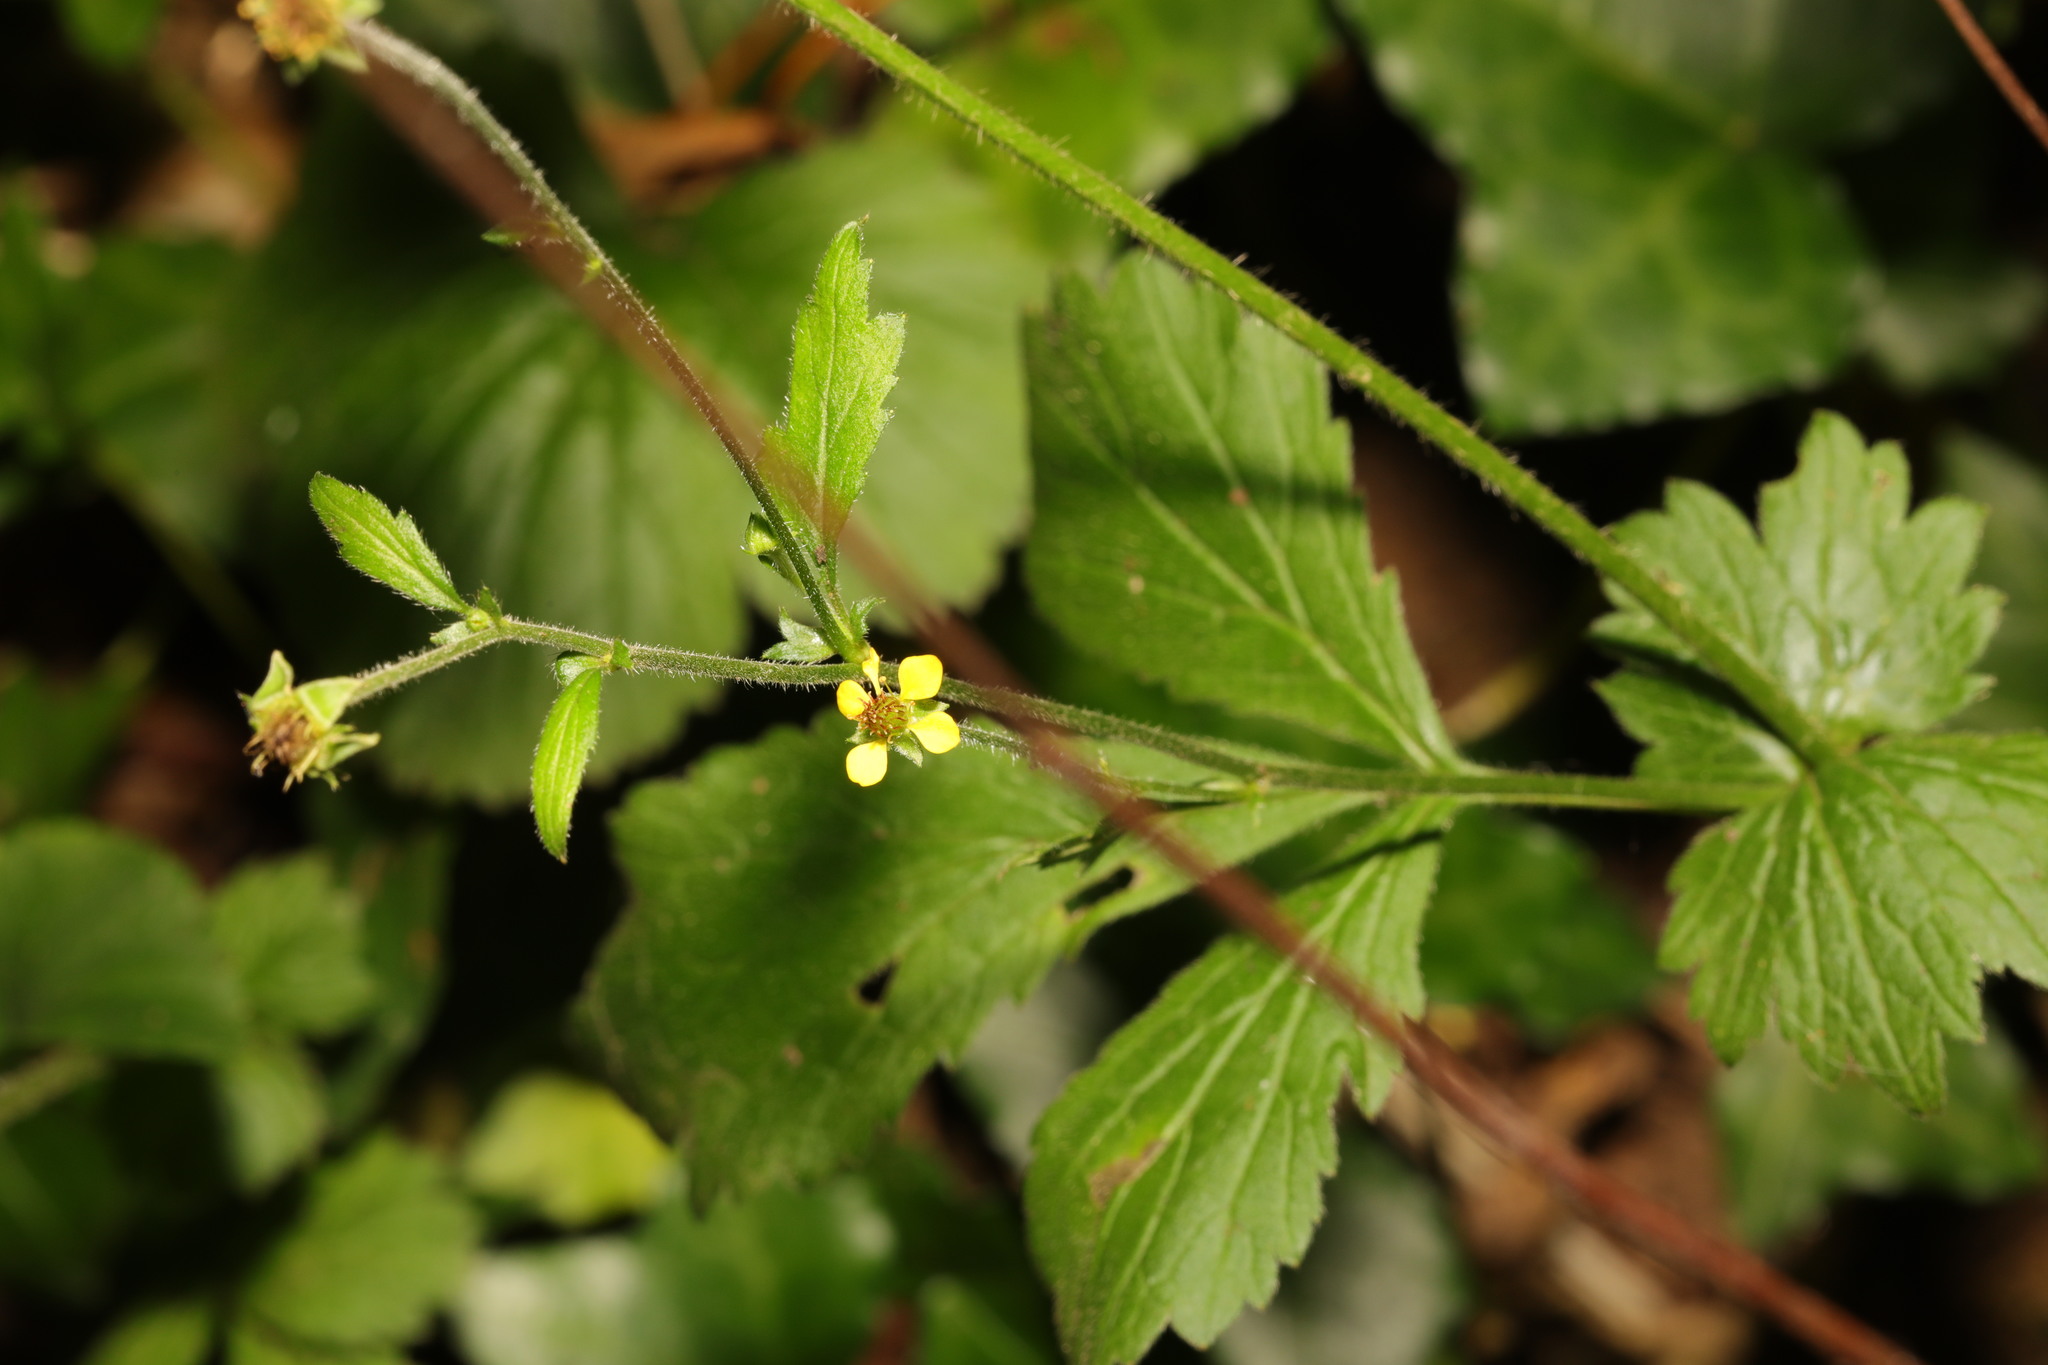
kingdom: Plantae
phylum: Tracheophyta
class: Magnoliopsida
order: Rosales
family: Rosaceae
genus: Geum
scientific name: Geum urbanum
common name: Wood avens
